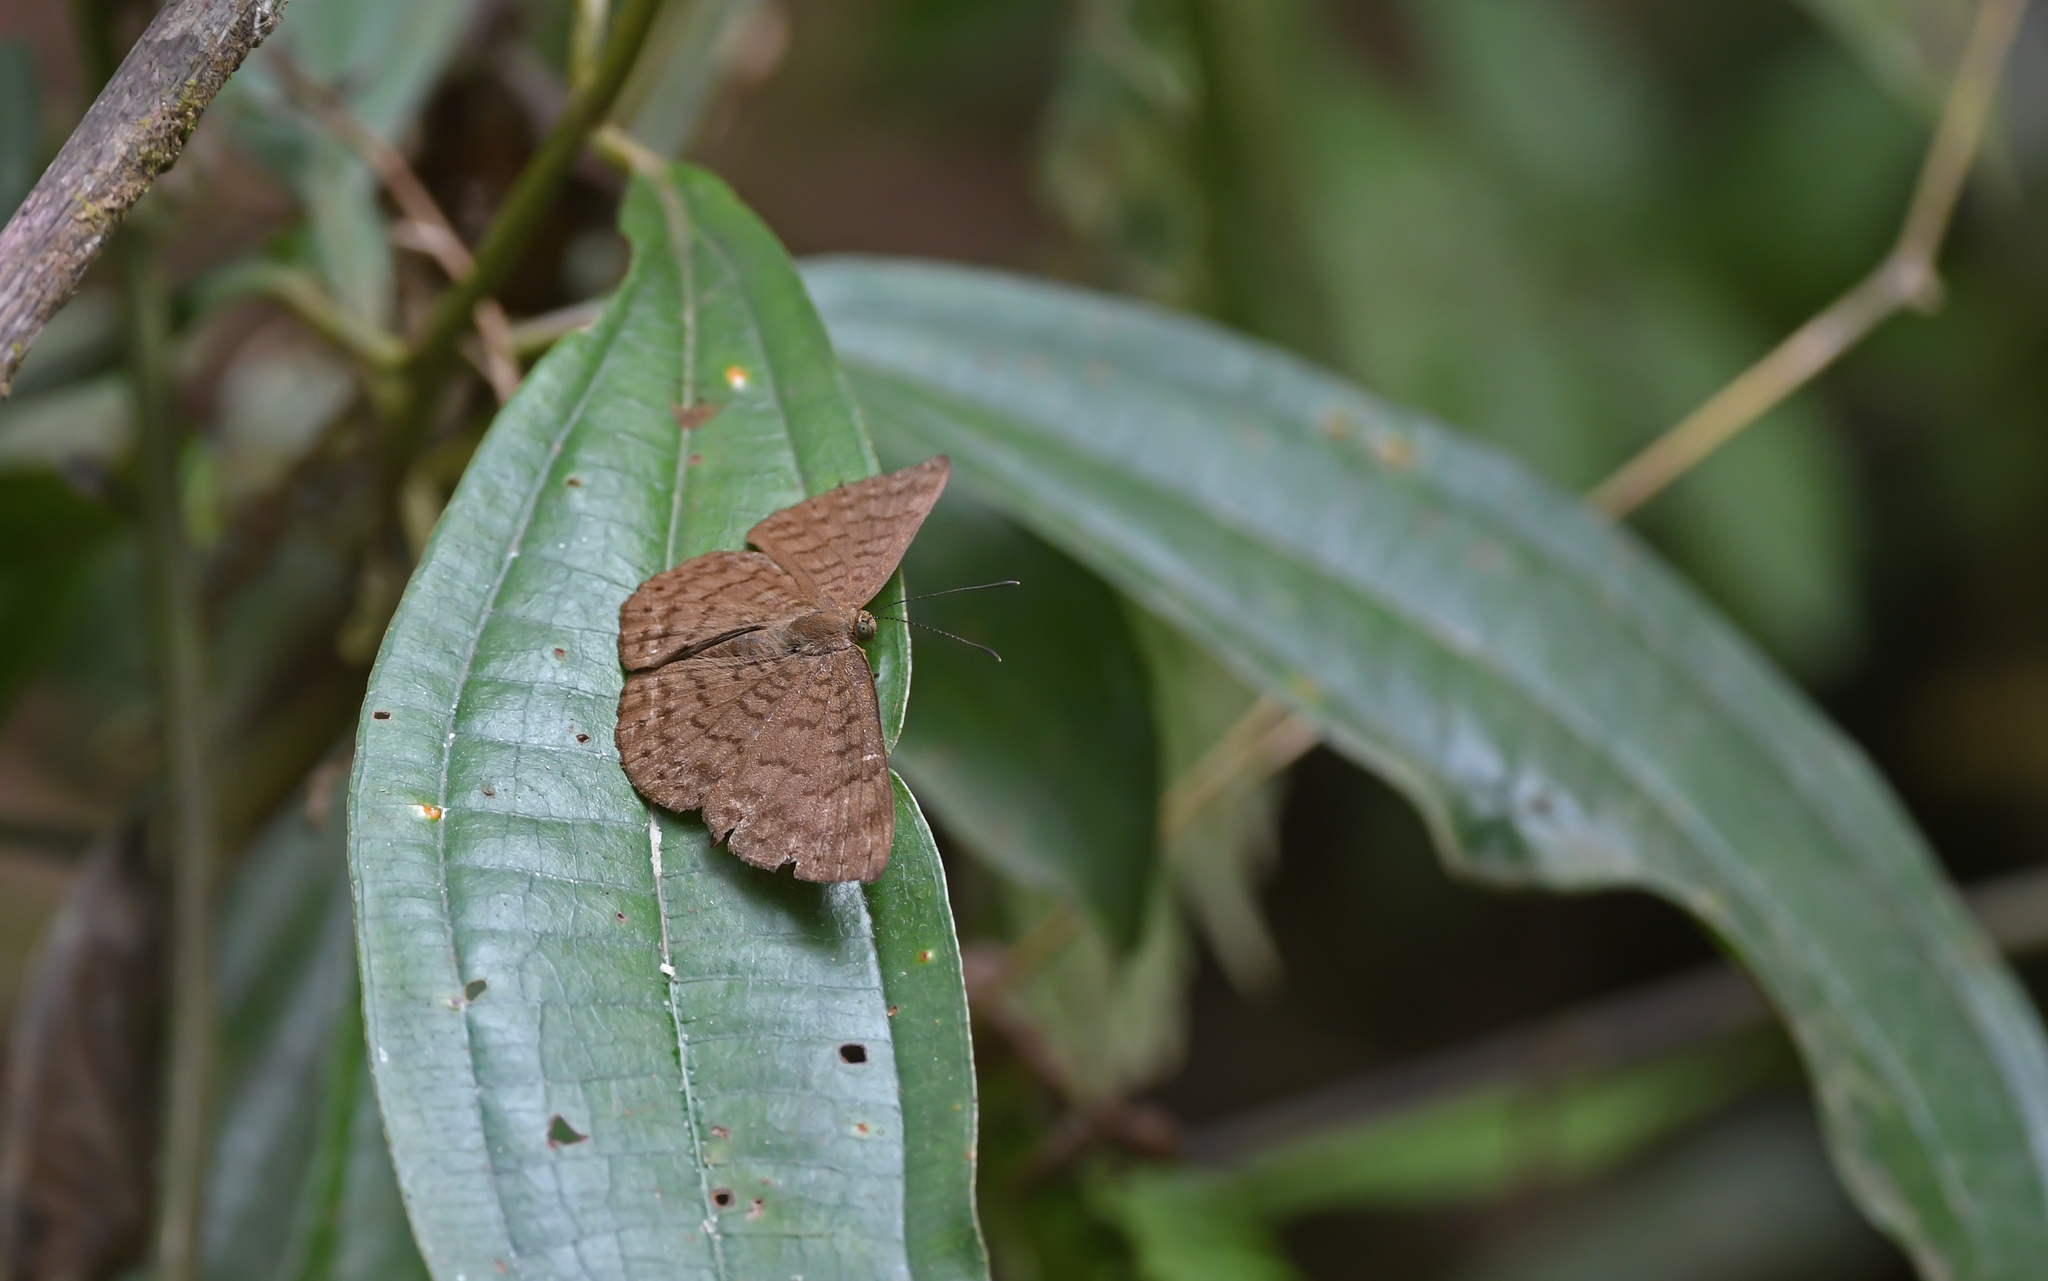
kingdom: Animalia
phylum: Arthropoda
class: Insecta
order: Lepidoptera
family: Lycaenidae
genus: Emesis
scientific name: Emesis ocypore
